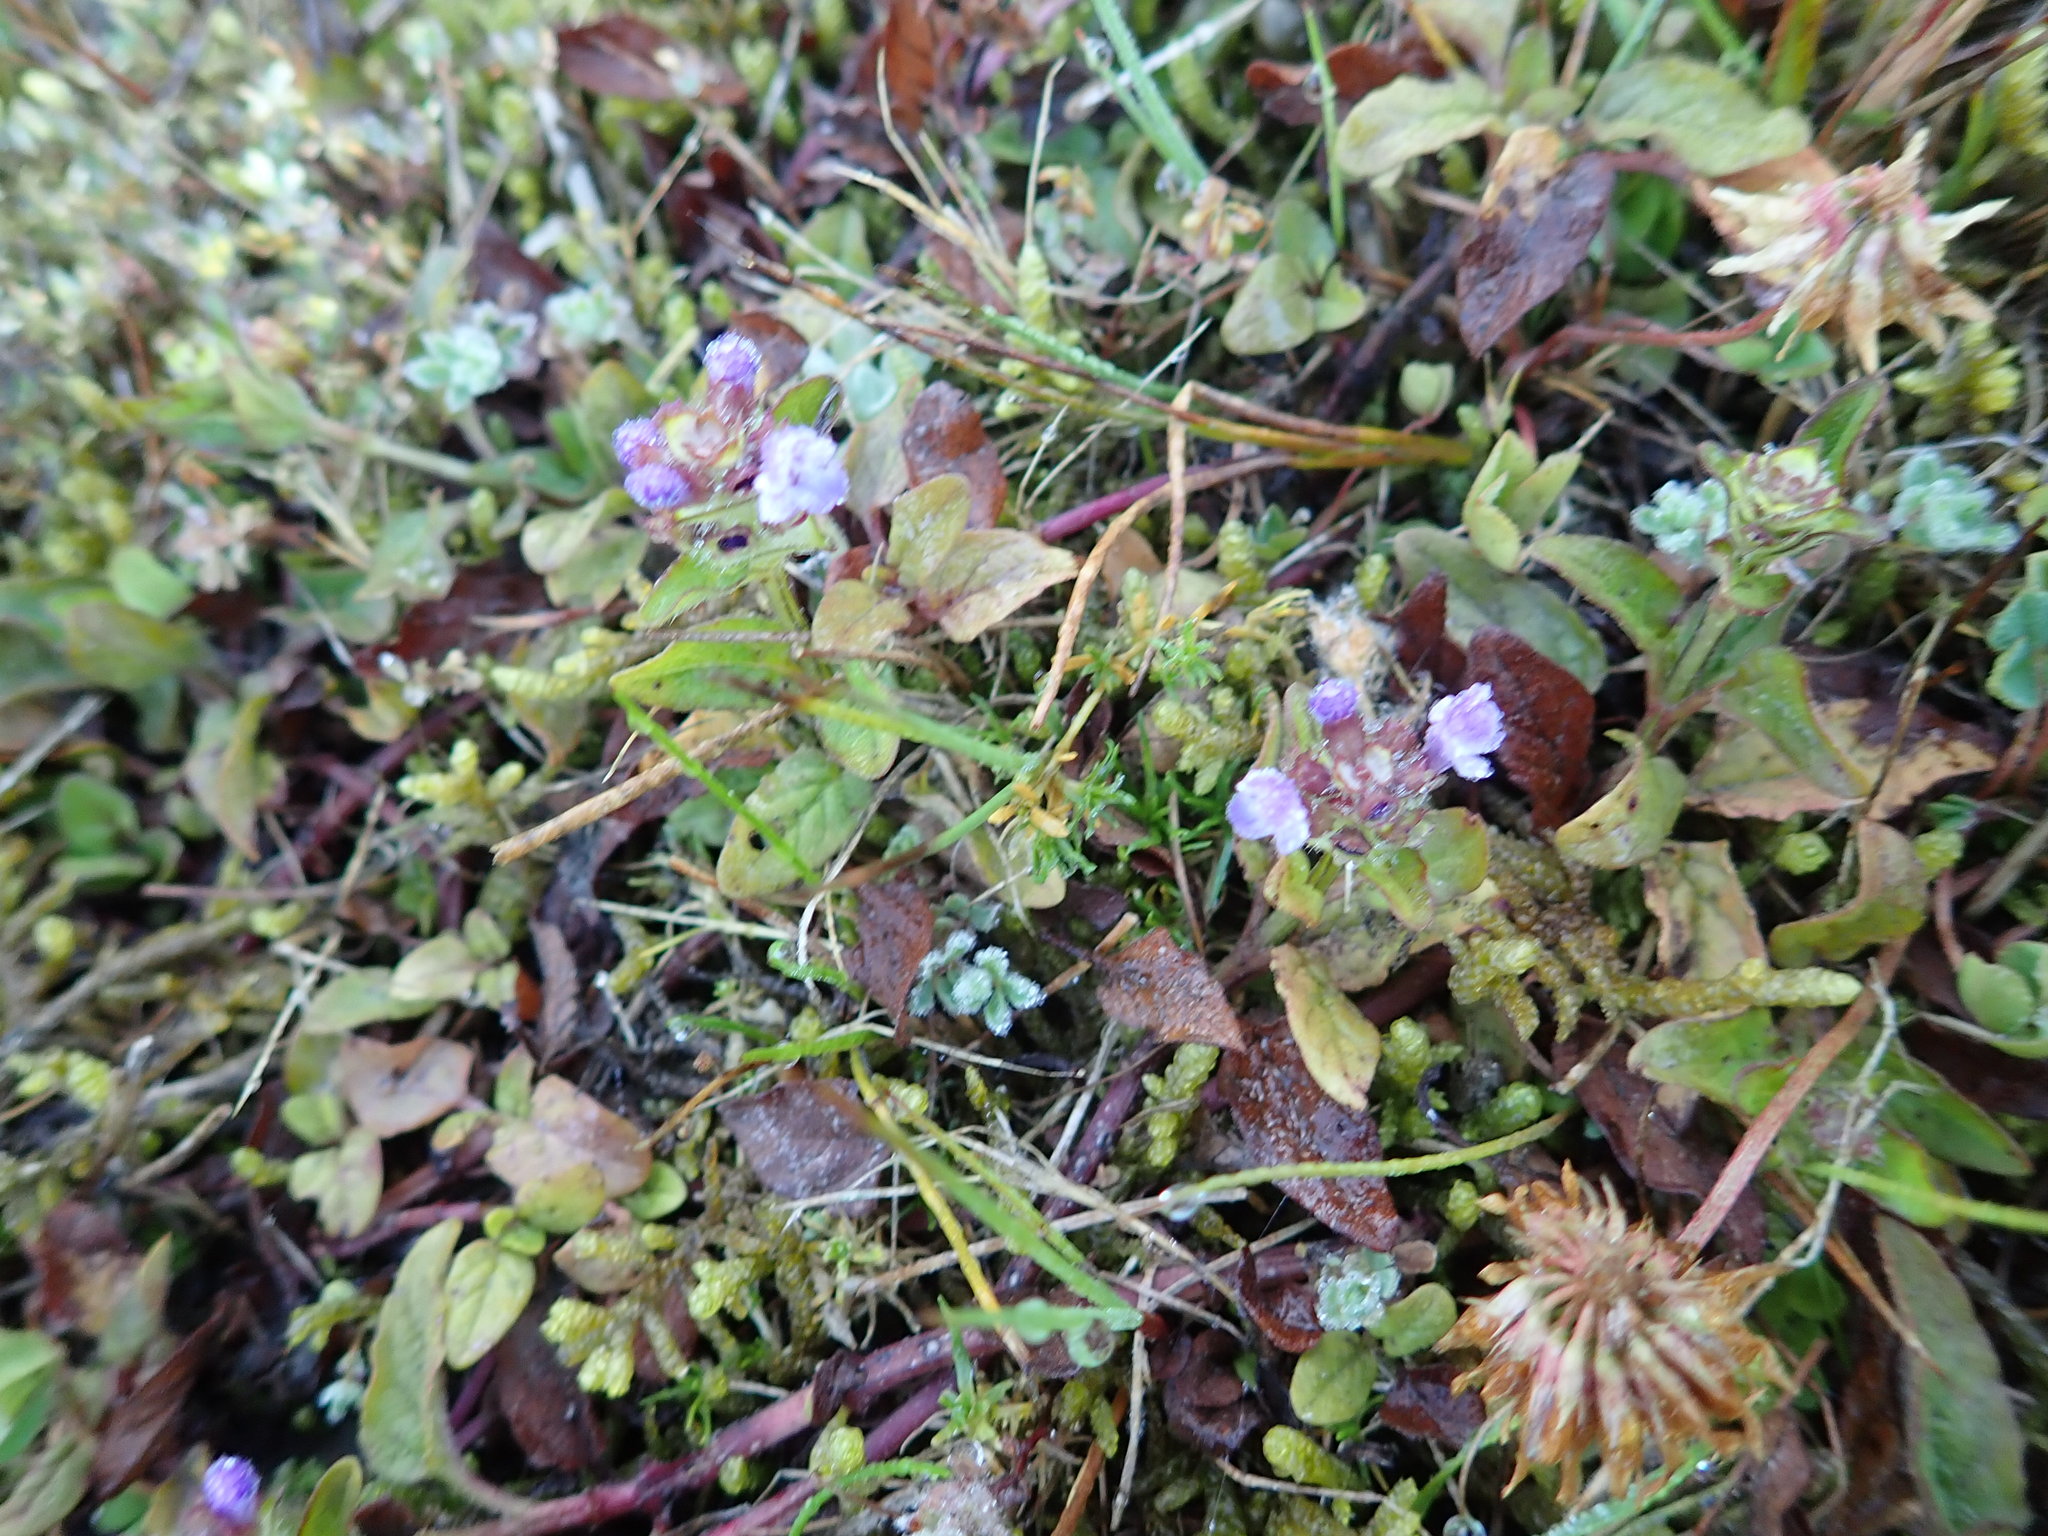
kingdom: Plantae
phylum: Tracheophyta
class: Magnoliopsida
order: Lamiales
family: Lamiaceae
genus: Prunella
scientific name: Prunella vulgaris
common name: Heal-all
